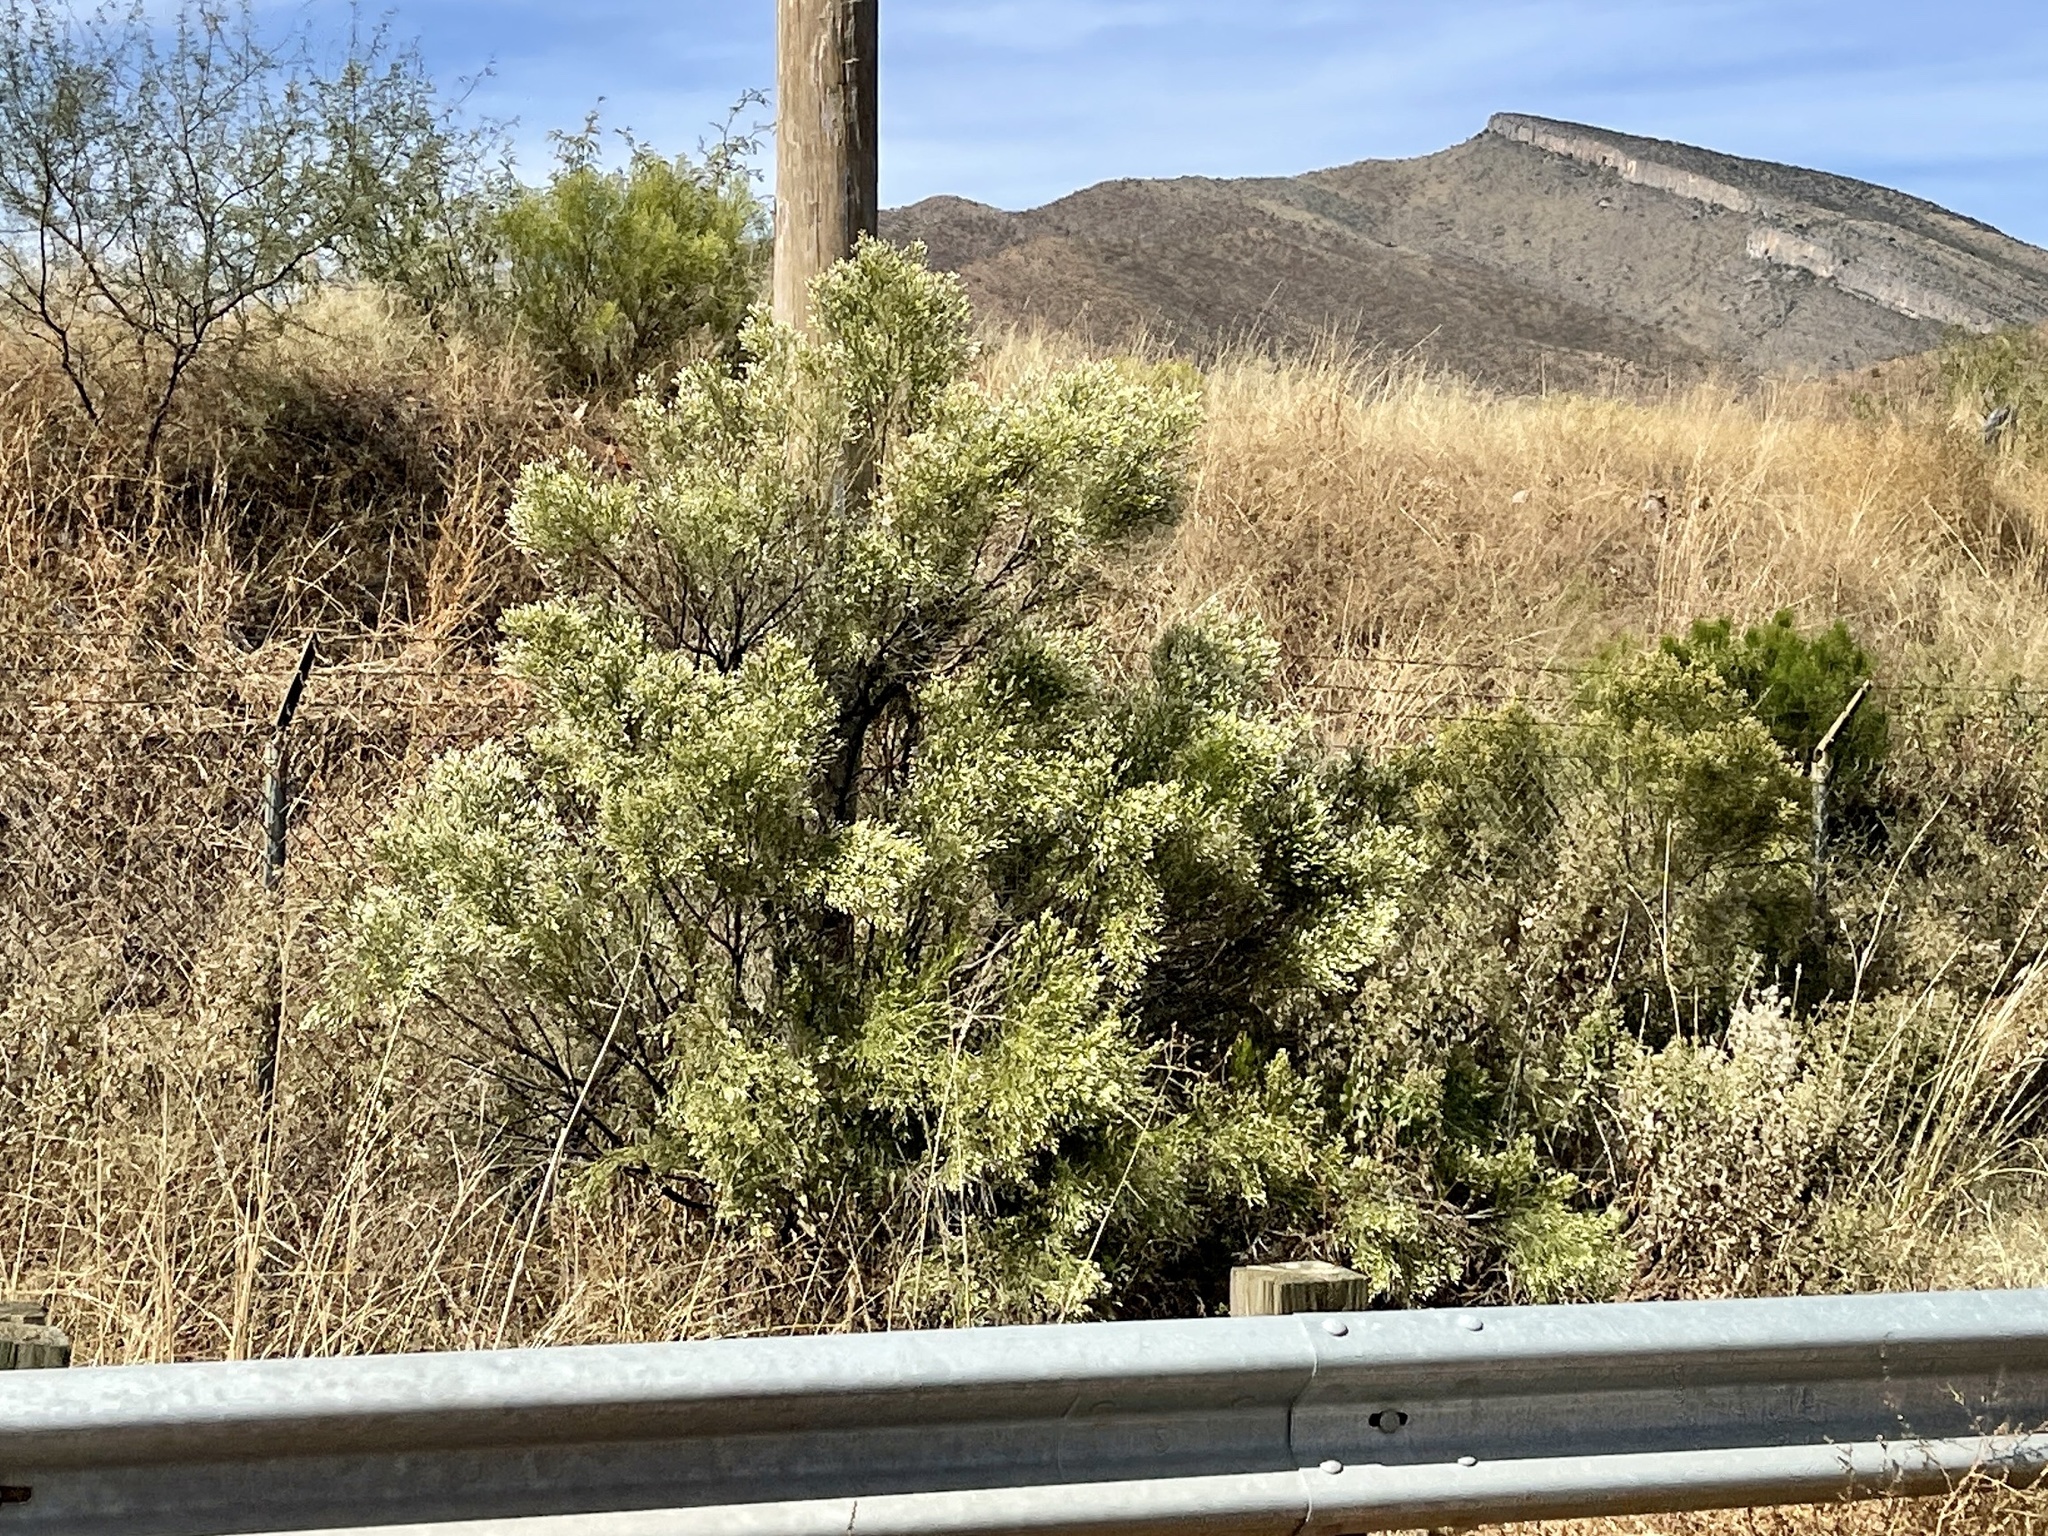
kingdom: Plantae
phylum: Tracheophyta
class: Magnoliopsida
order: Asterales
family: Asteraceae
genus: Baccharis
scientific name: Baccharis sarothroides
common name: Desert-broom
